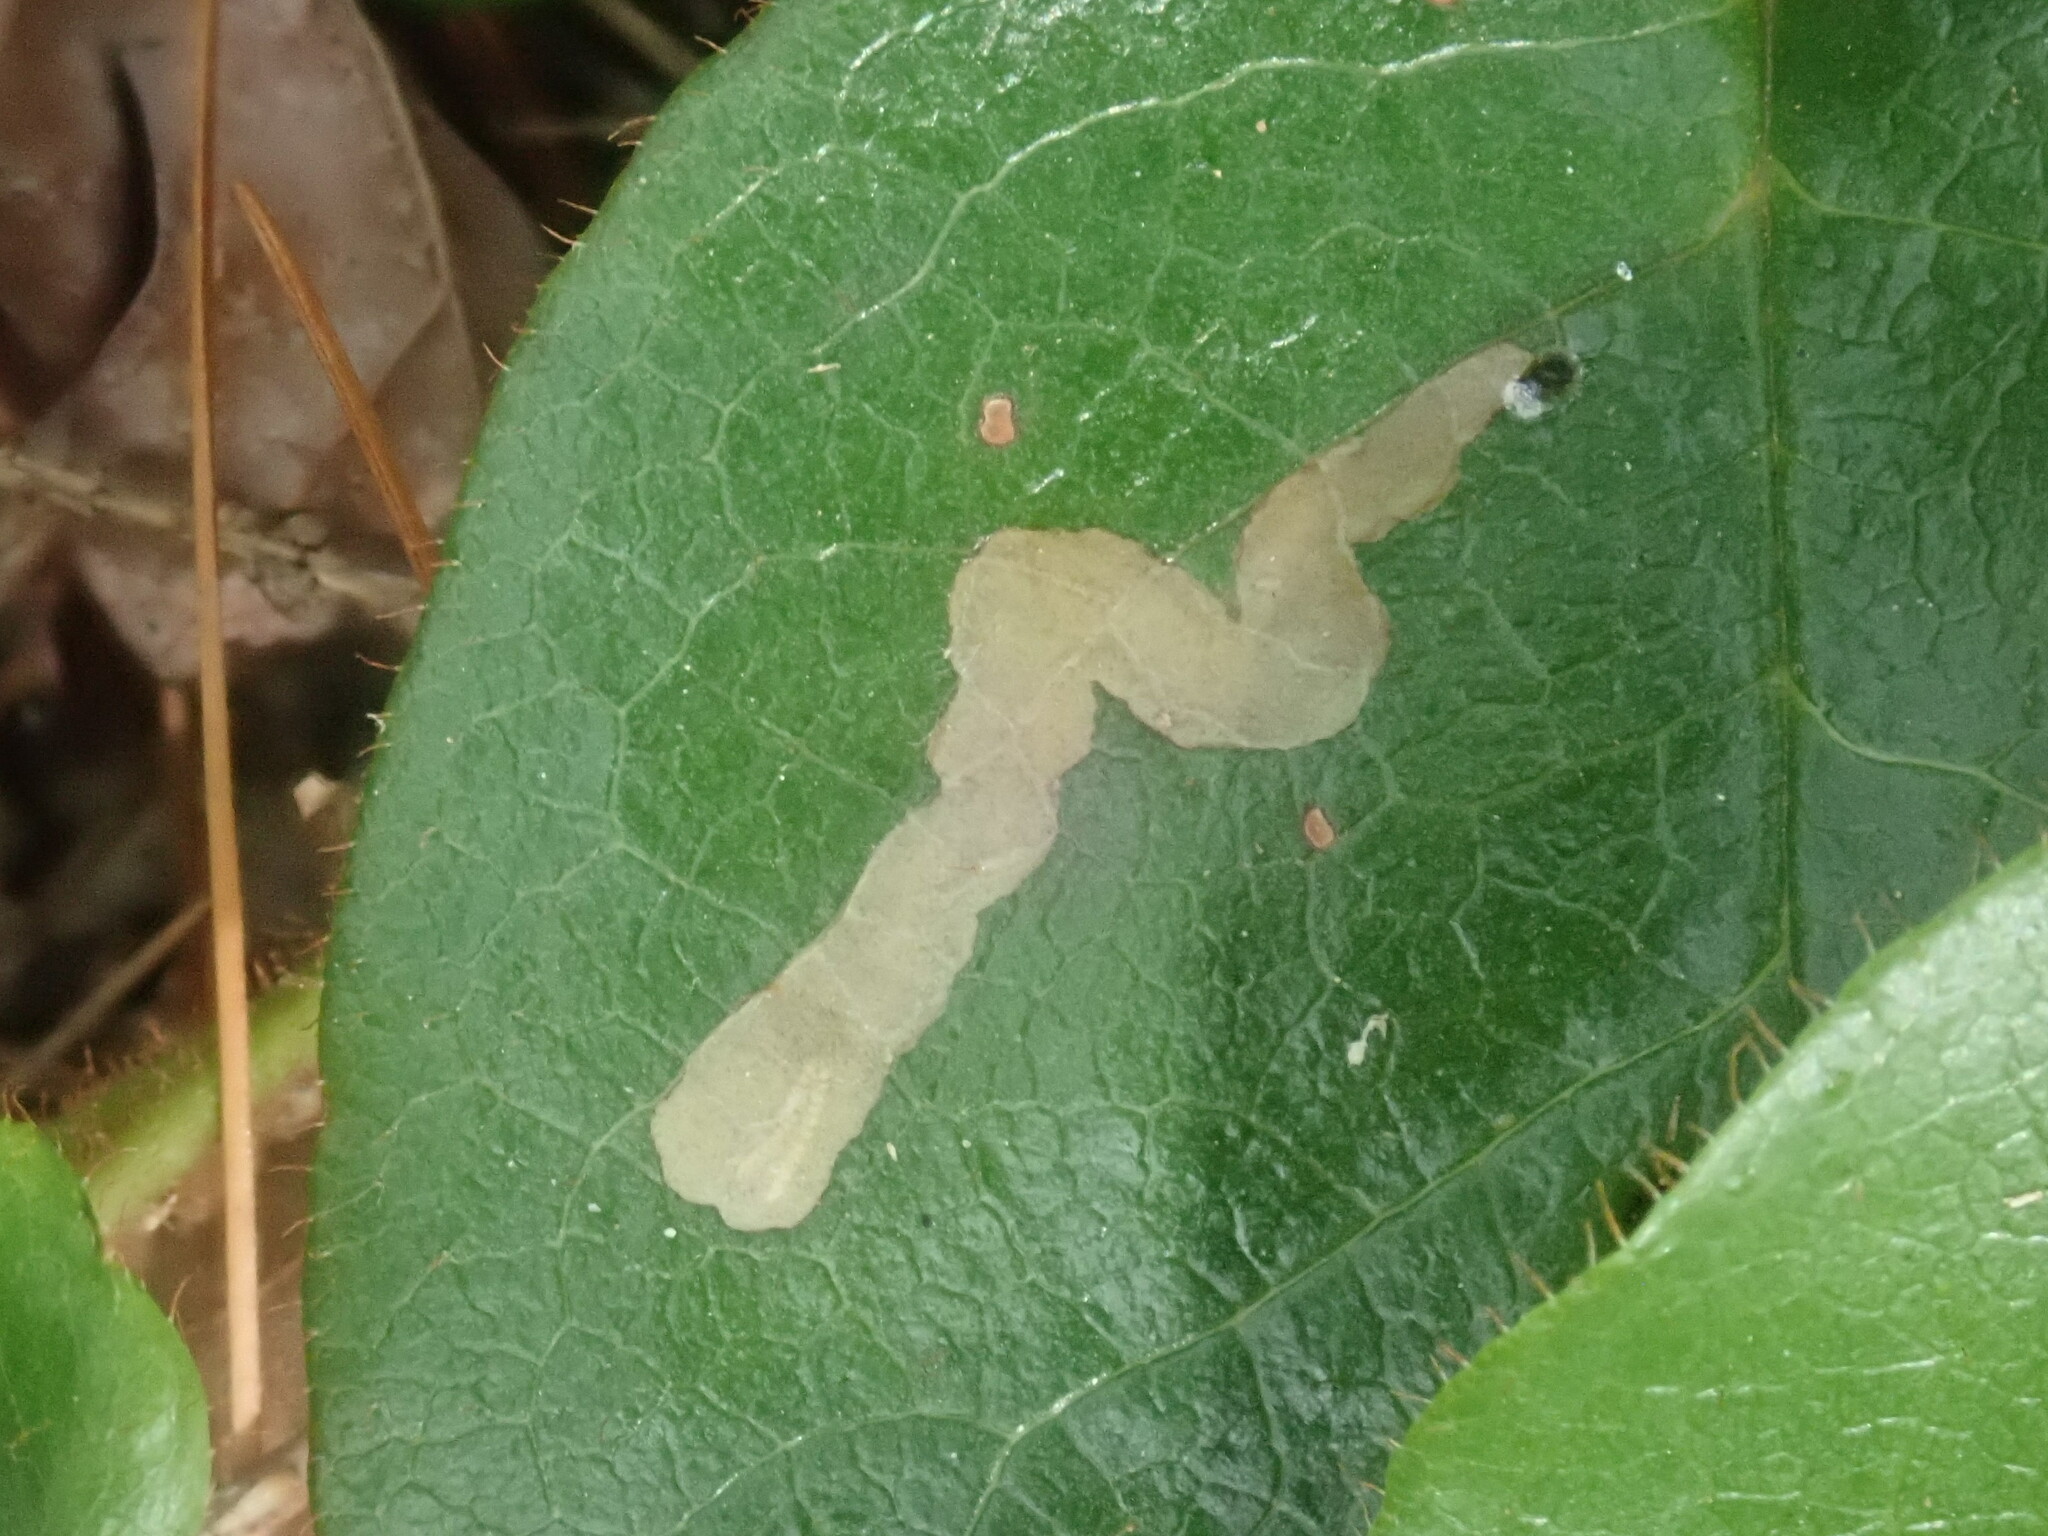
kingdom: Animalia
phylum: Arthropoda
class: Insecta
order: Coleoptera
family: Buprestidae
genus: Brachys
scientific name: Brachys
